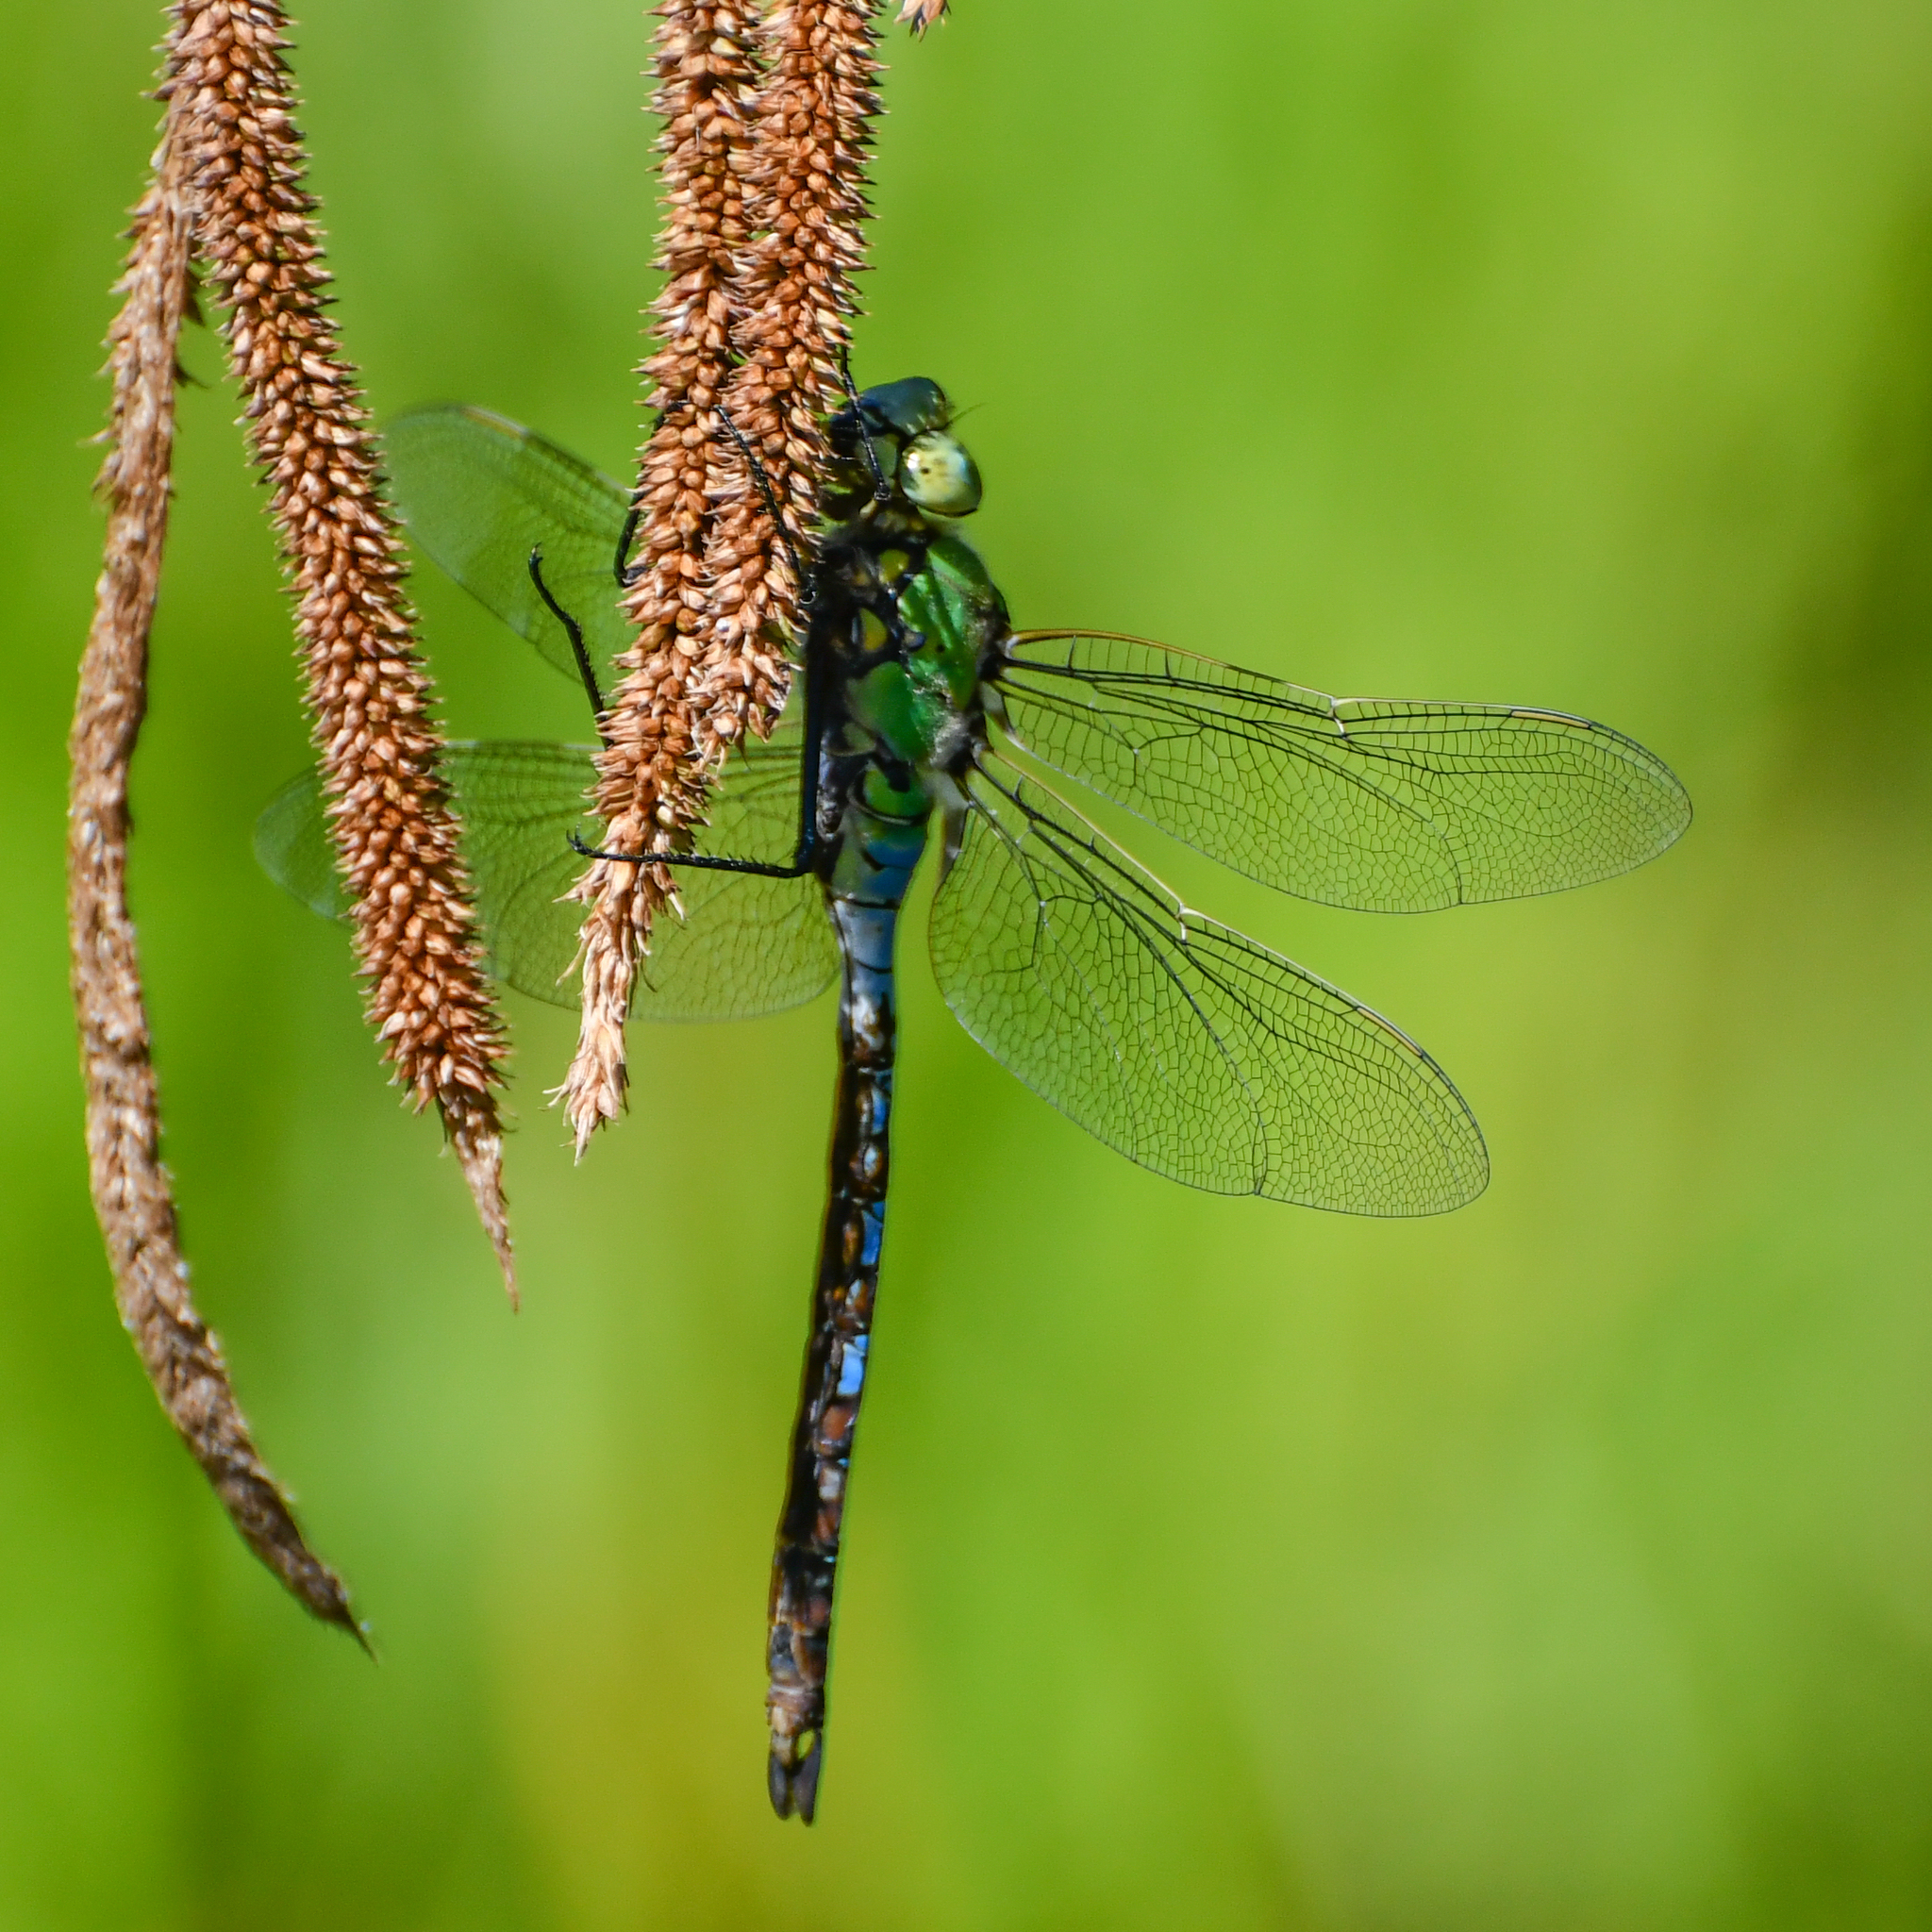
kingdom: Animalia
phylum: Arthropoda
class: Insecta
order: Odonata
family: Aeshnidae
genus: Anax
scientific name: Anax imperator
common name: Emperor dragonfly
